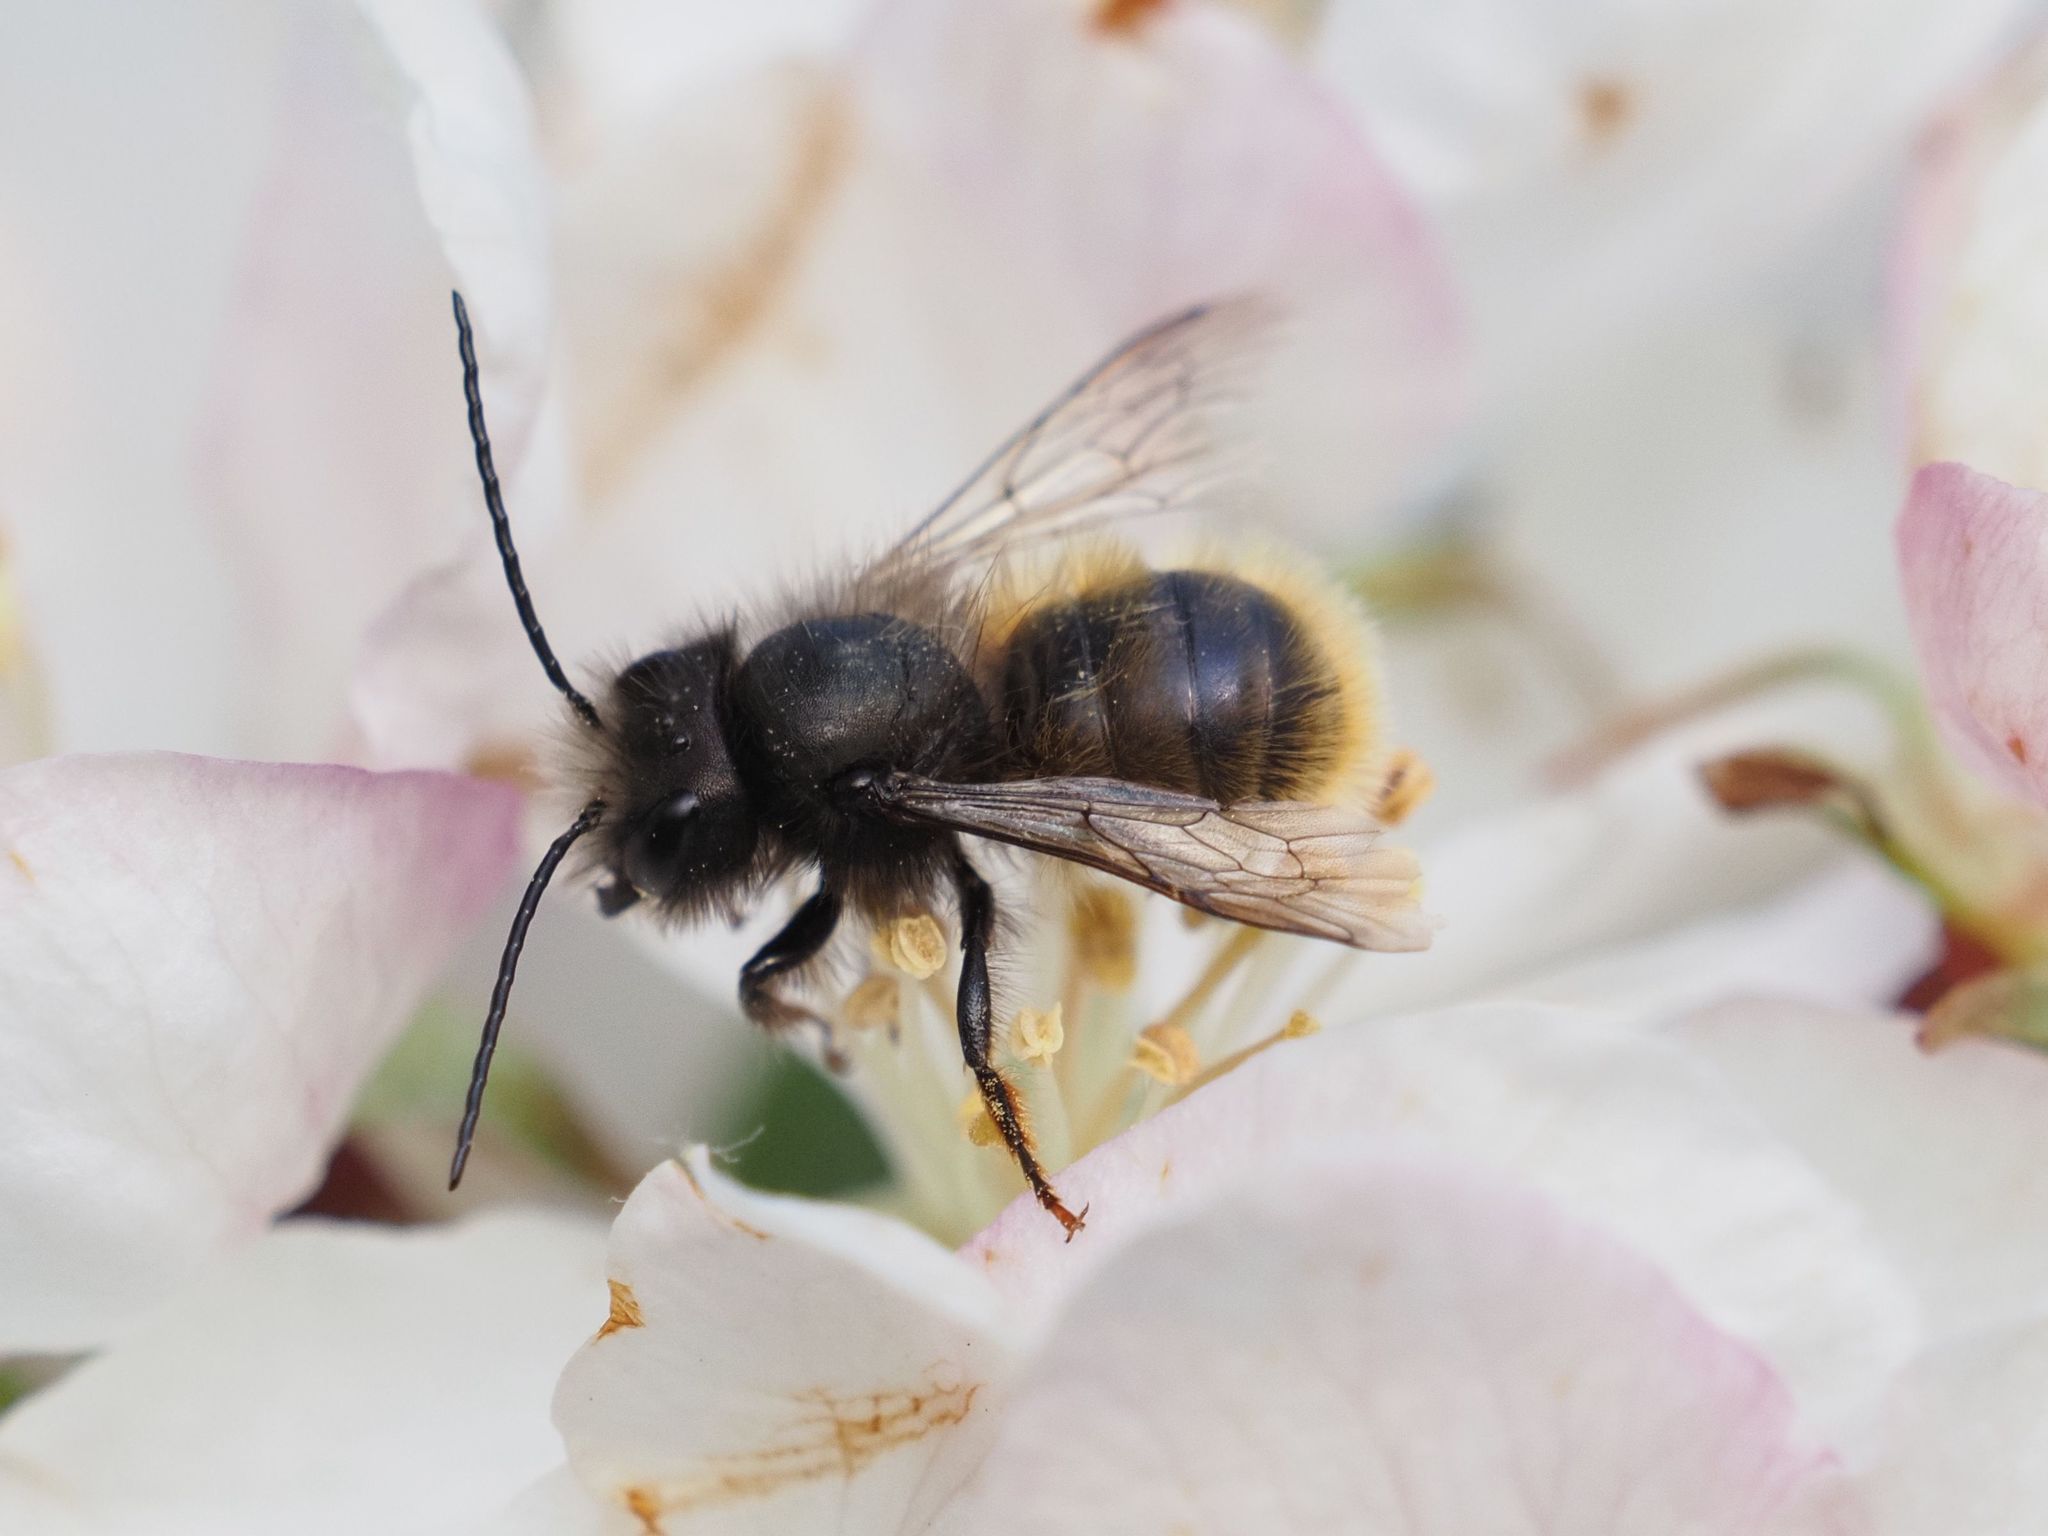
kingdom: Animalia
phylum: Arthropoda
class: Insecta
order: Hymenoptera
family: Megachilidae
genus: Osmia
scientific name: Osmia cornuta
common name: Mason bee
